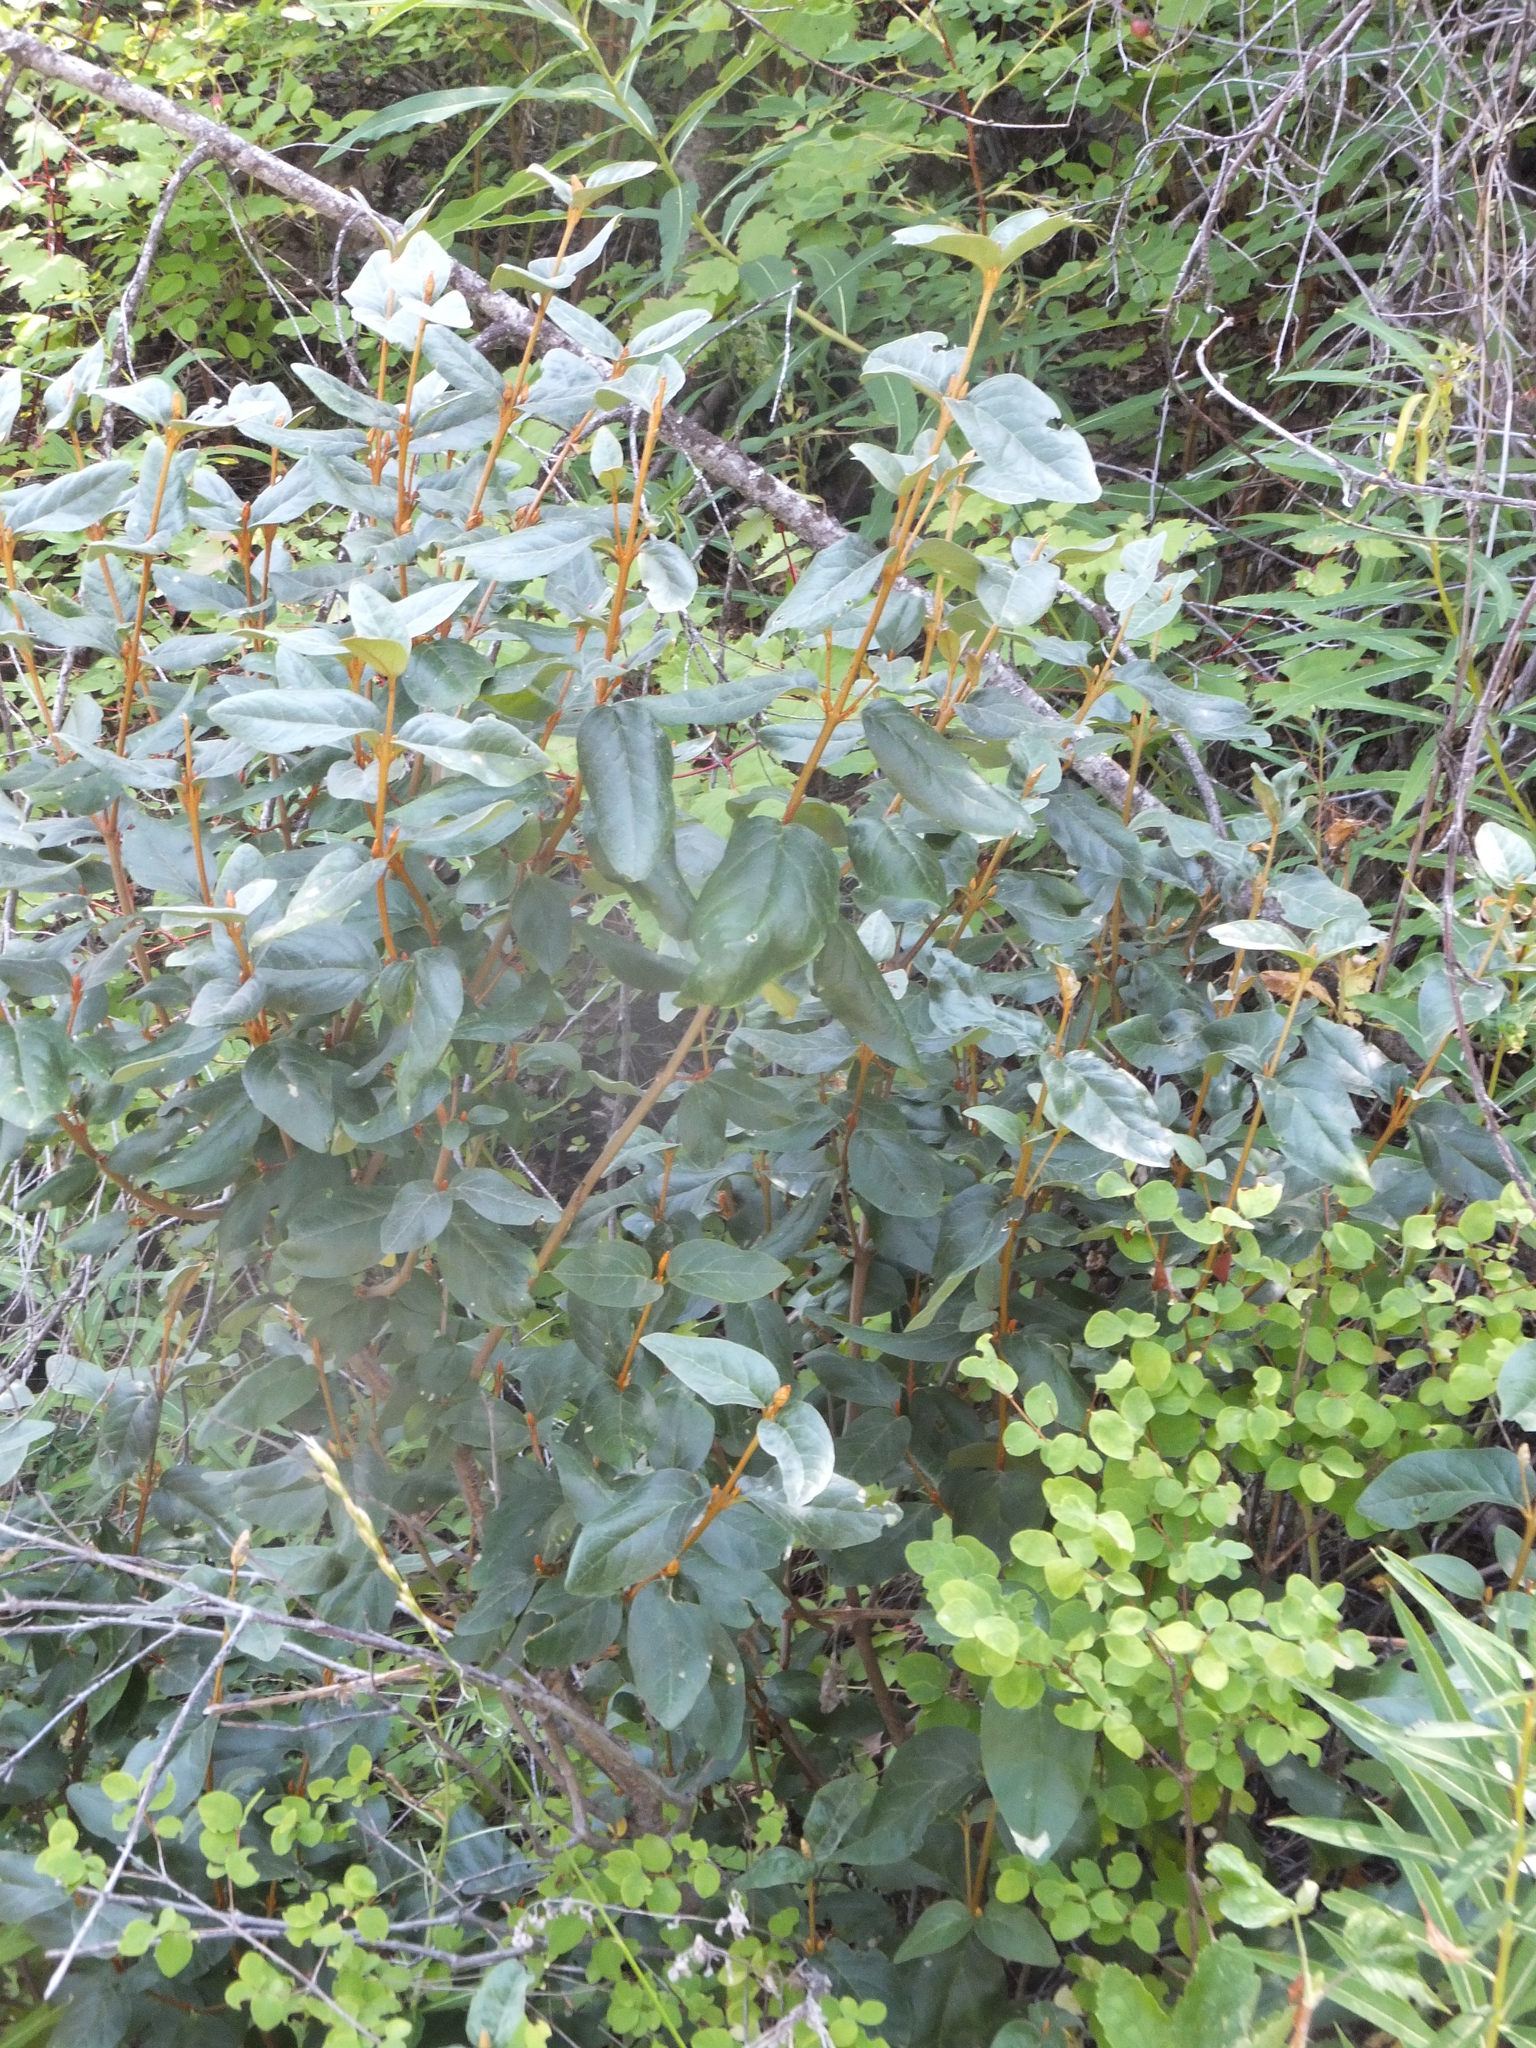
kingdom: Plantae
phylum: Tracheophyta
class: Magnoliopsida
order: Rosales
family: Elaeagnaceae
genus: Shepherdia
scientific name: Shepherdia canadensis
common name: Soapberry
